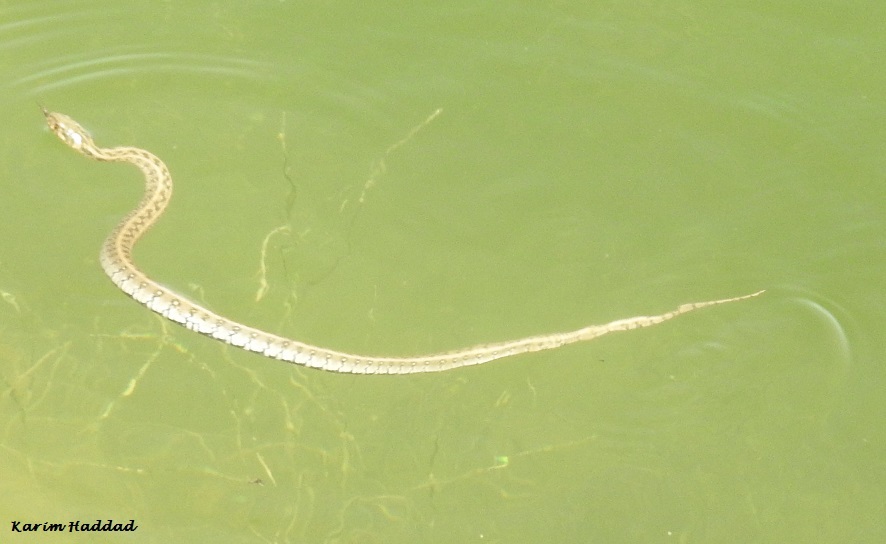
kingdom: Animalia
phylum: Chordata
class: Squamata
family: Colubridae
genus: Natrix
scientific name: Natrix maura
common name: Viperine water snake
